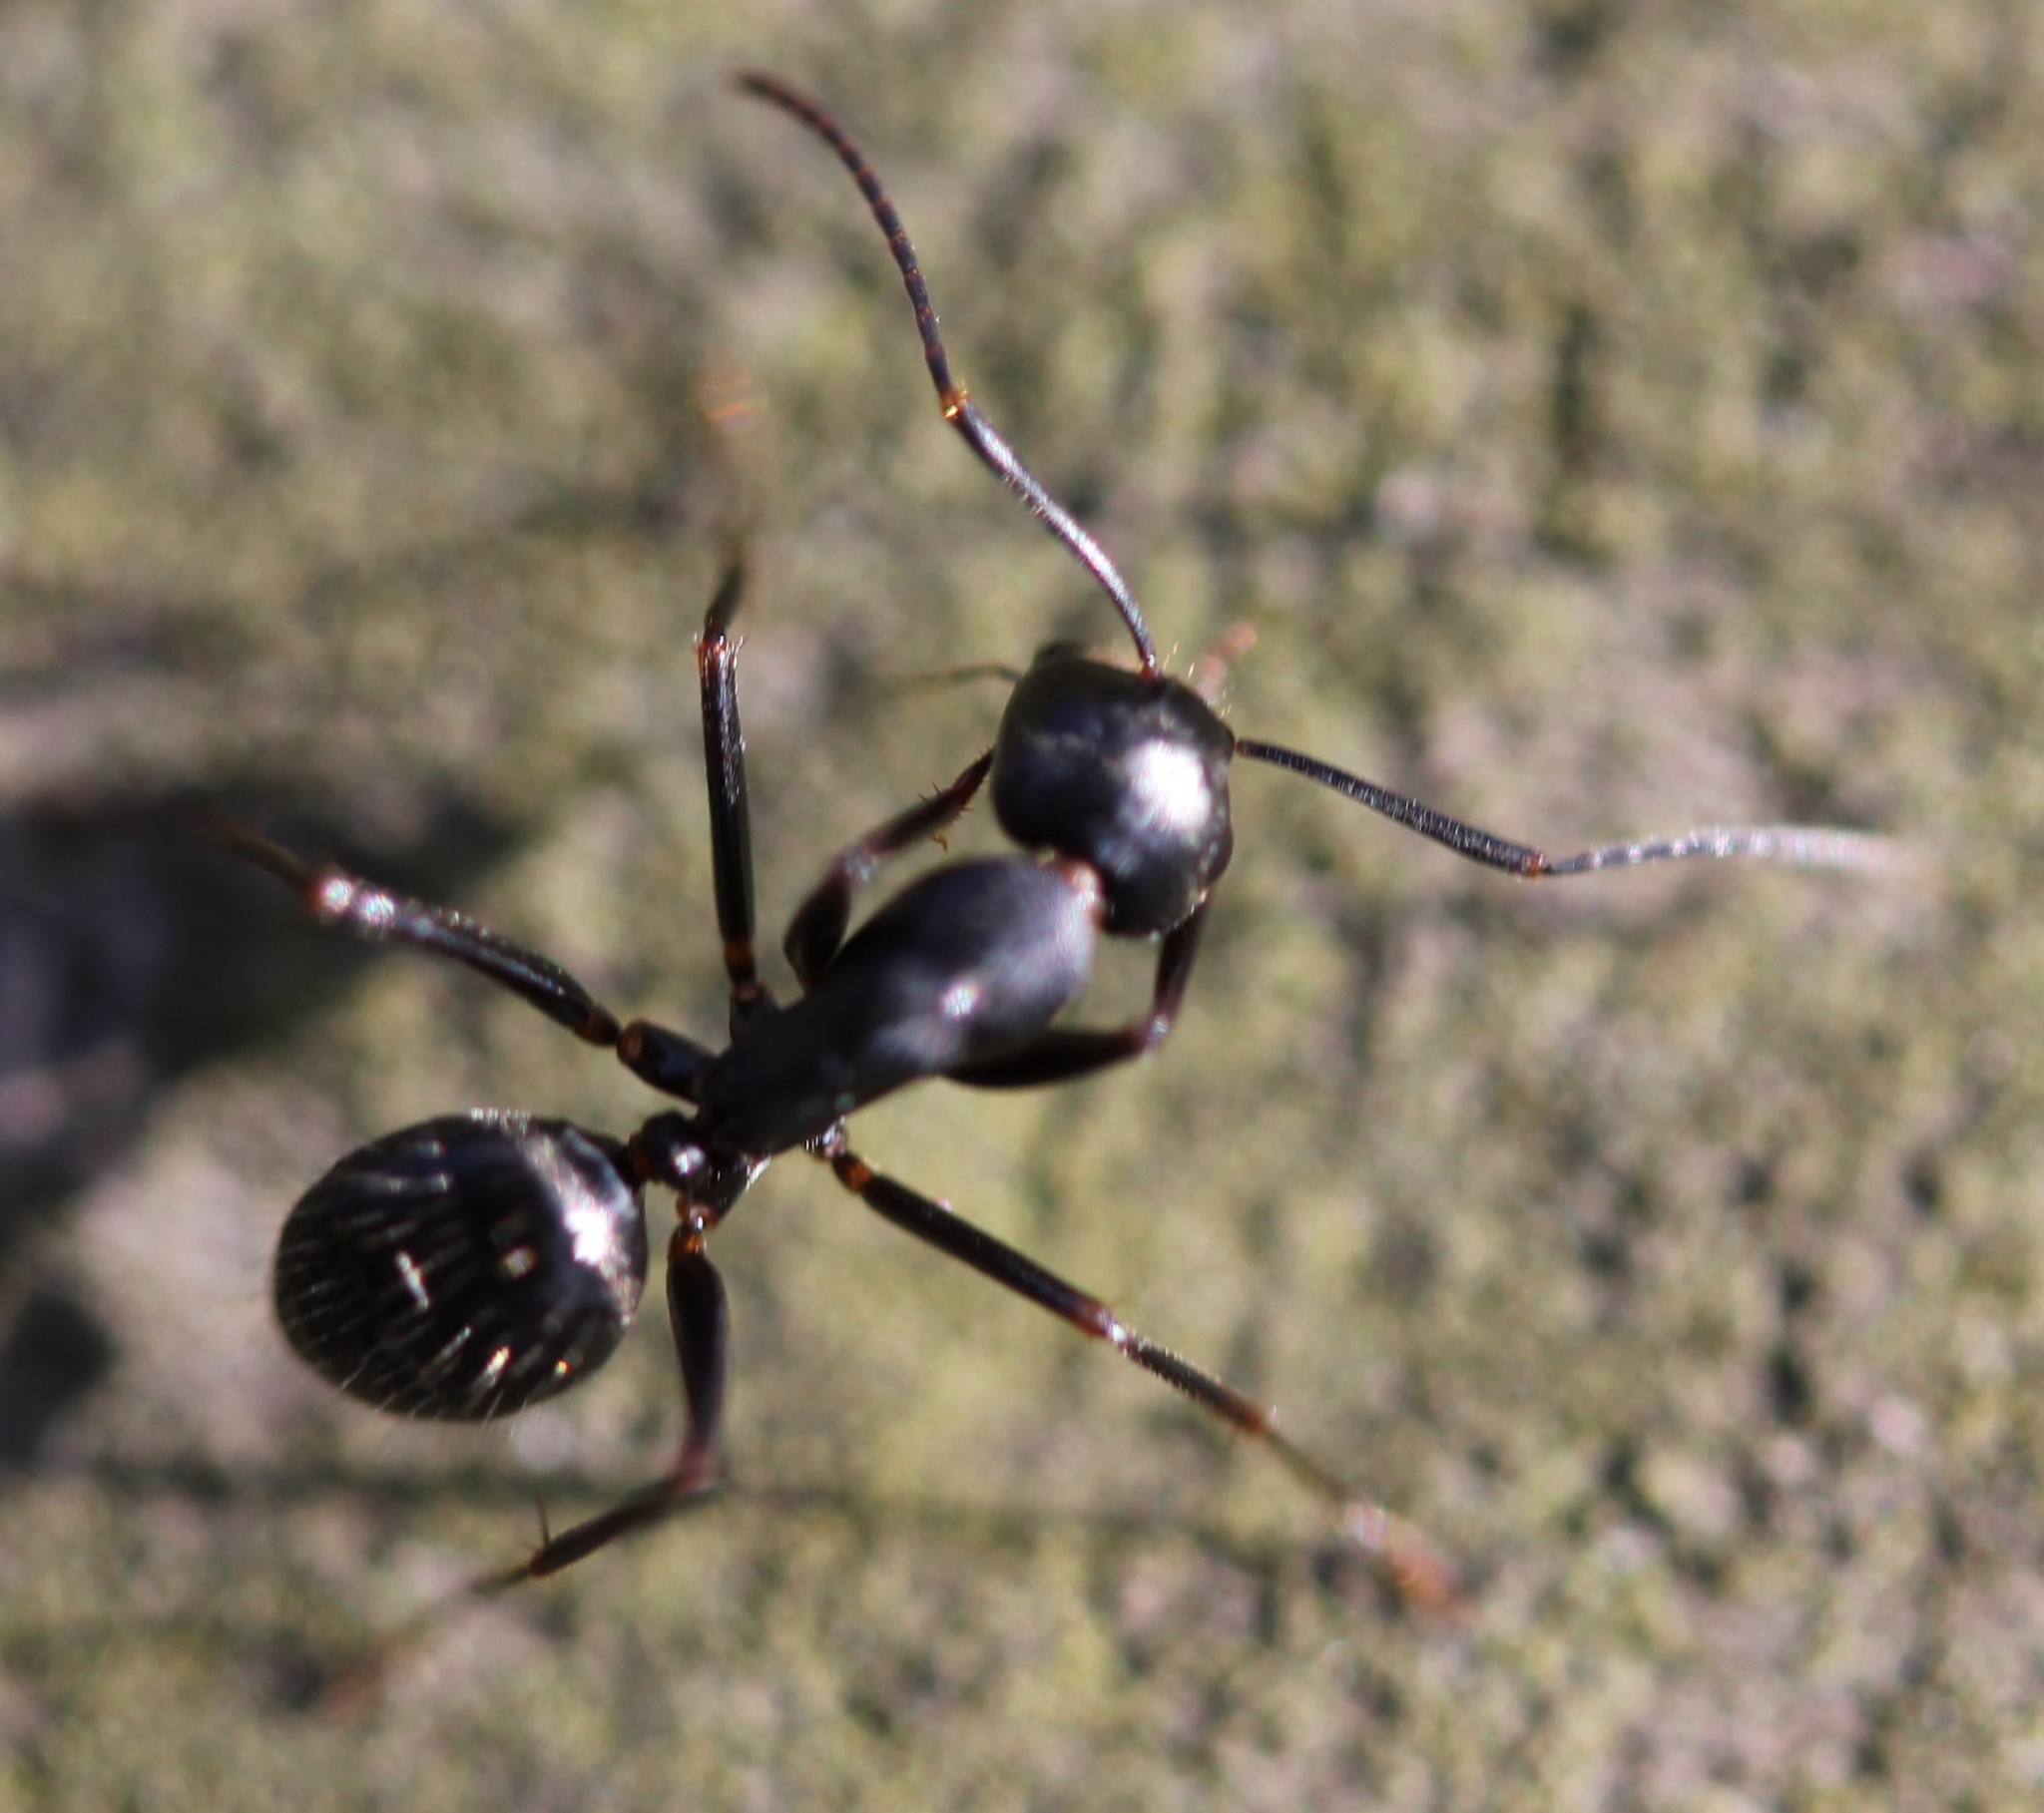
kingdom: Animalia
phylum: Arthropoda
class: Insecta
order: Hymenoptera
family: Formicidae
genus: Camponotus
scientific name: Camponotus pennsylvanicus
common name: Black carpenter ant
